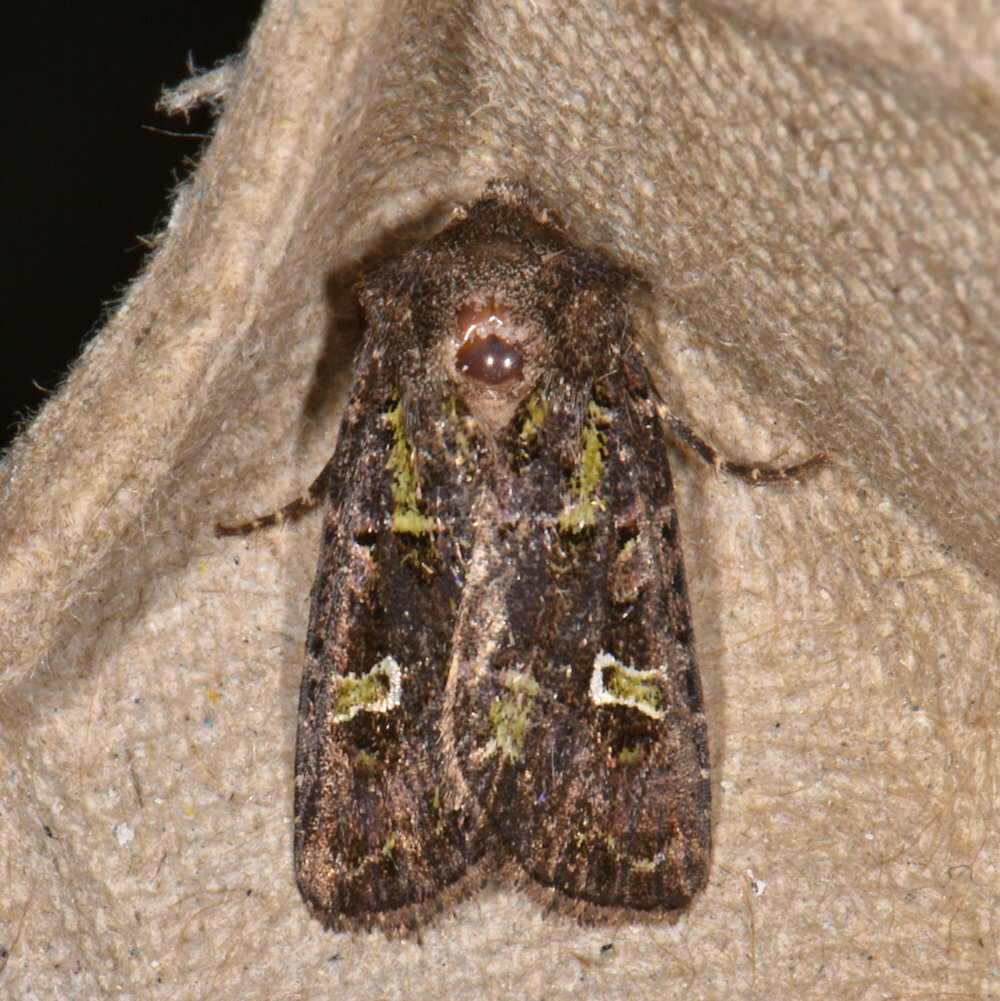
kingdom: Animalia
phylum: Arthropoda
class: Insecta
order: Lepidoptera
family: Noctuidae
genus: Lacinipolia
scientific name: Lacinipolia renigera
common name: Kidney-spotted minor
